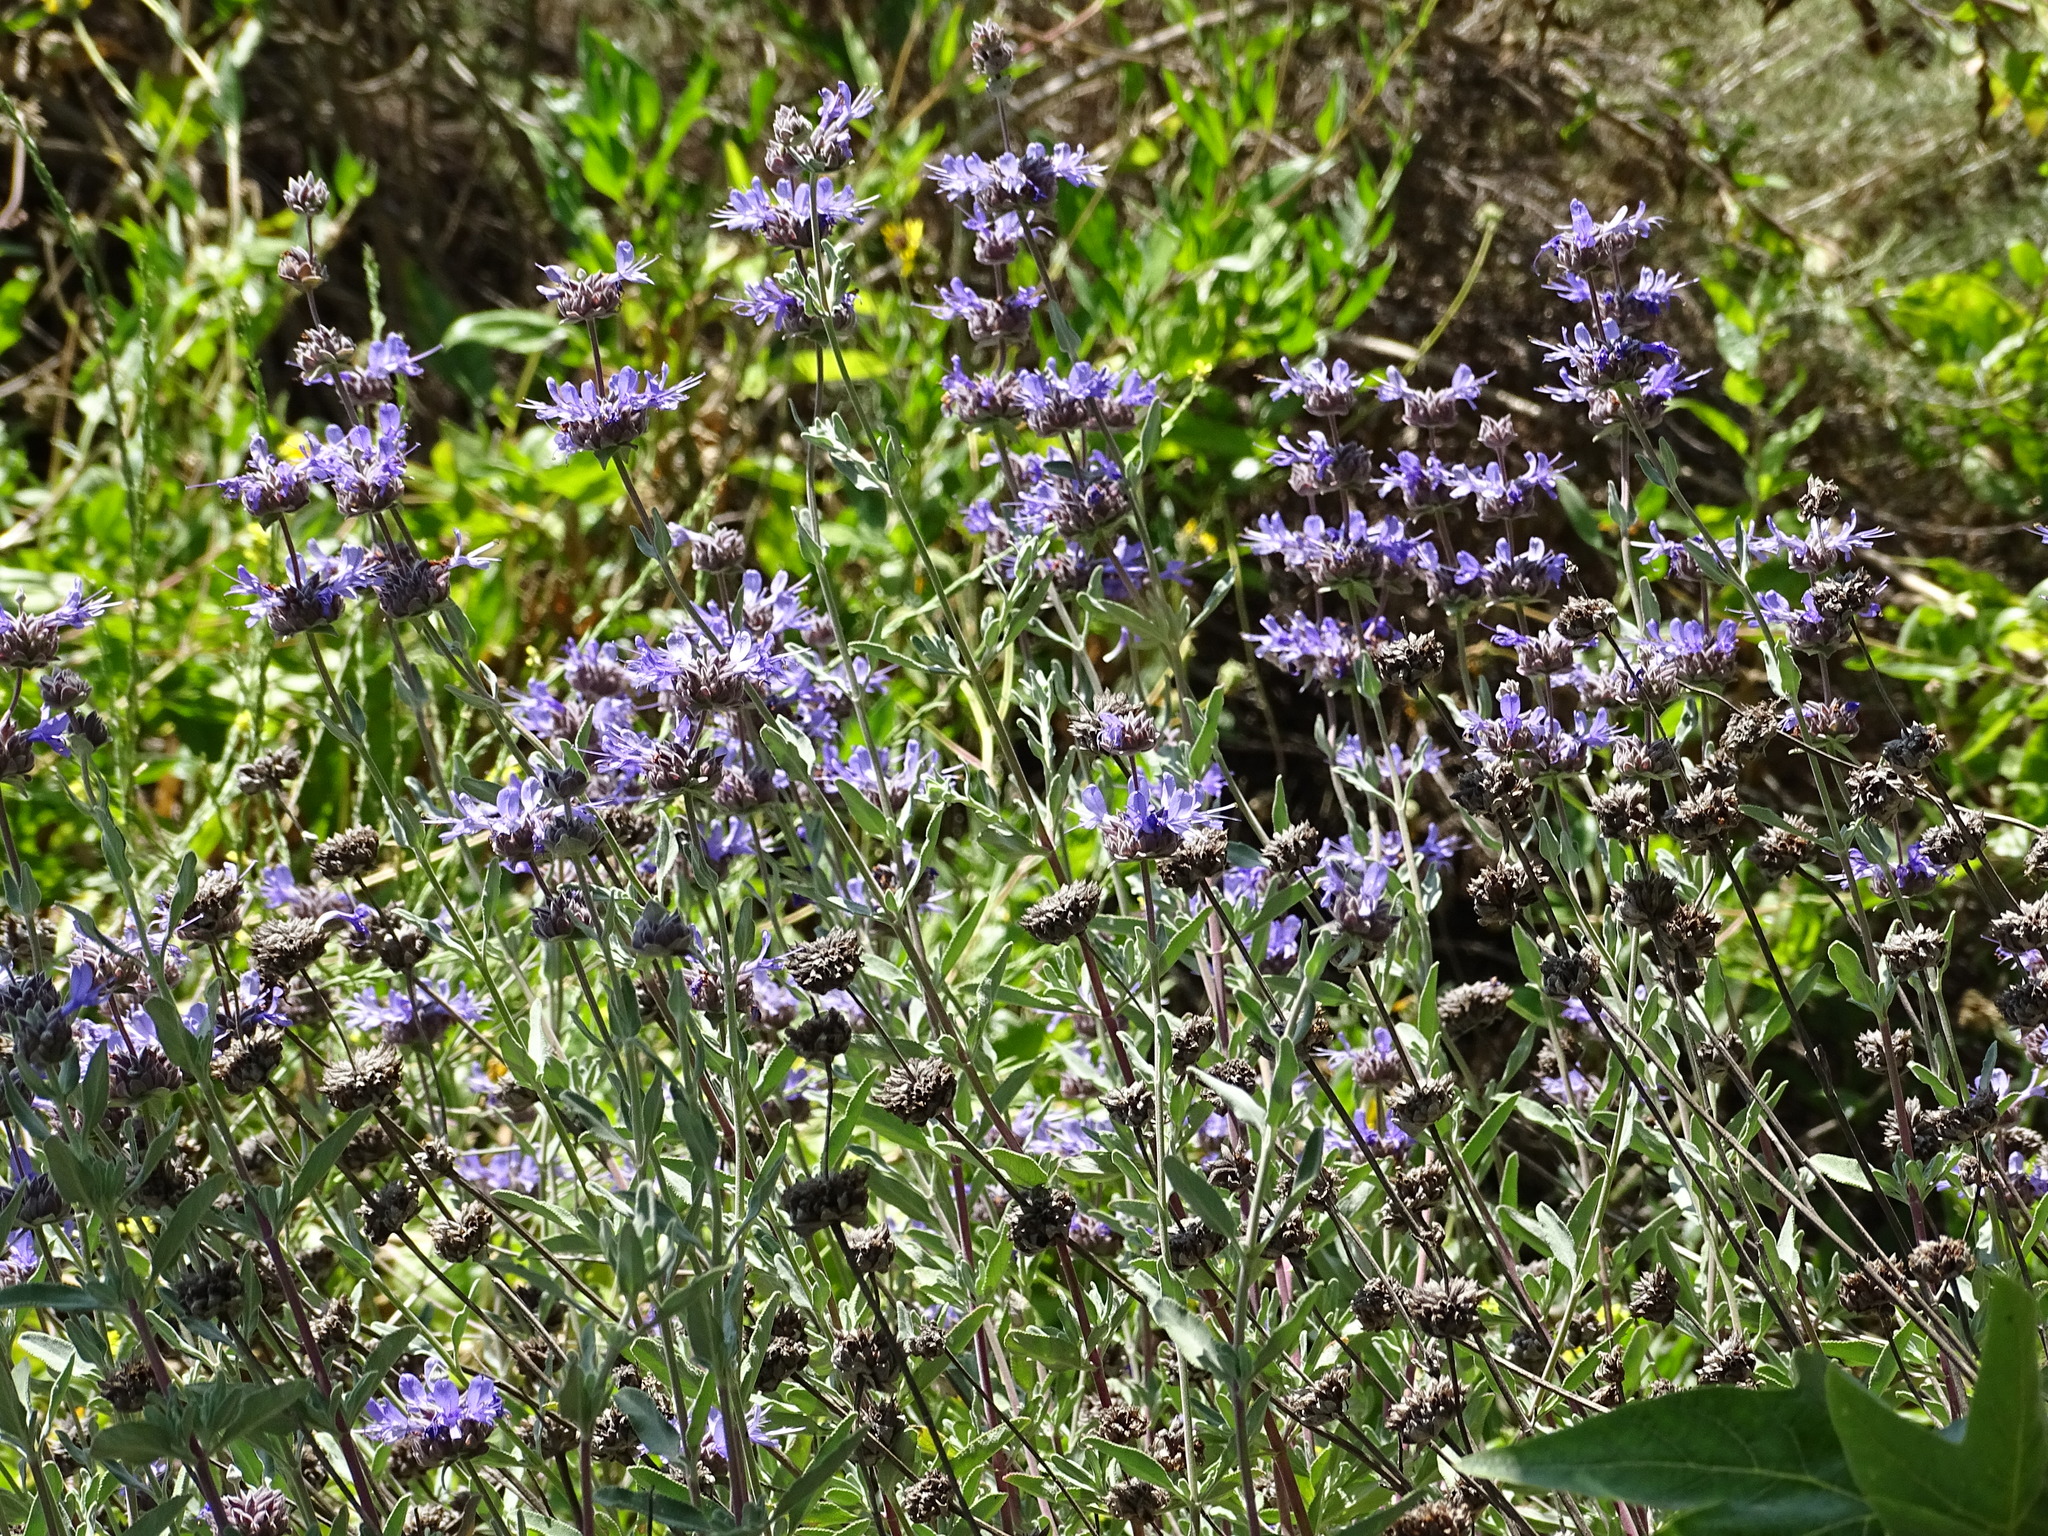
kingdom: Plantae
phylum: Tracheophyta
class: Magnoliopsida
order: Lamiales
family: Lamiaceae
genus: Salvia
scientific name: Salvia leucophylla
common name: Purple sage
